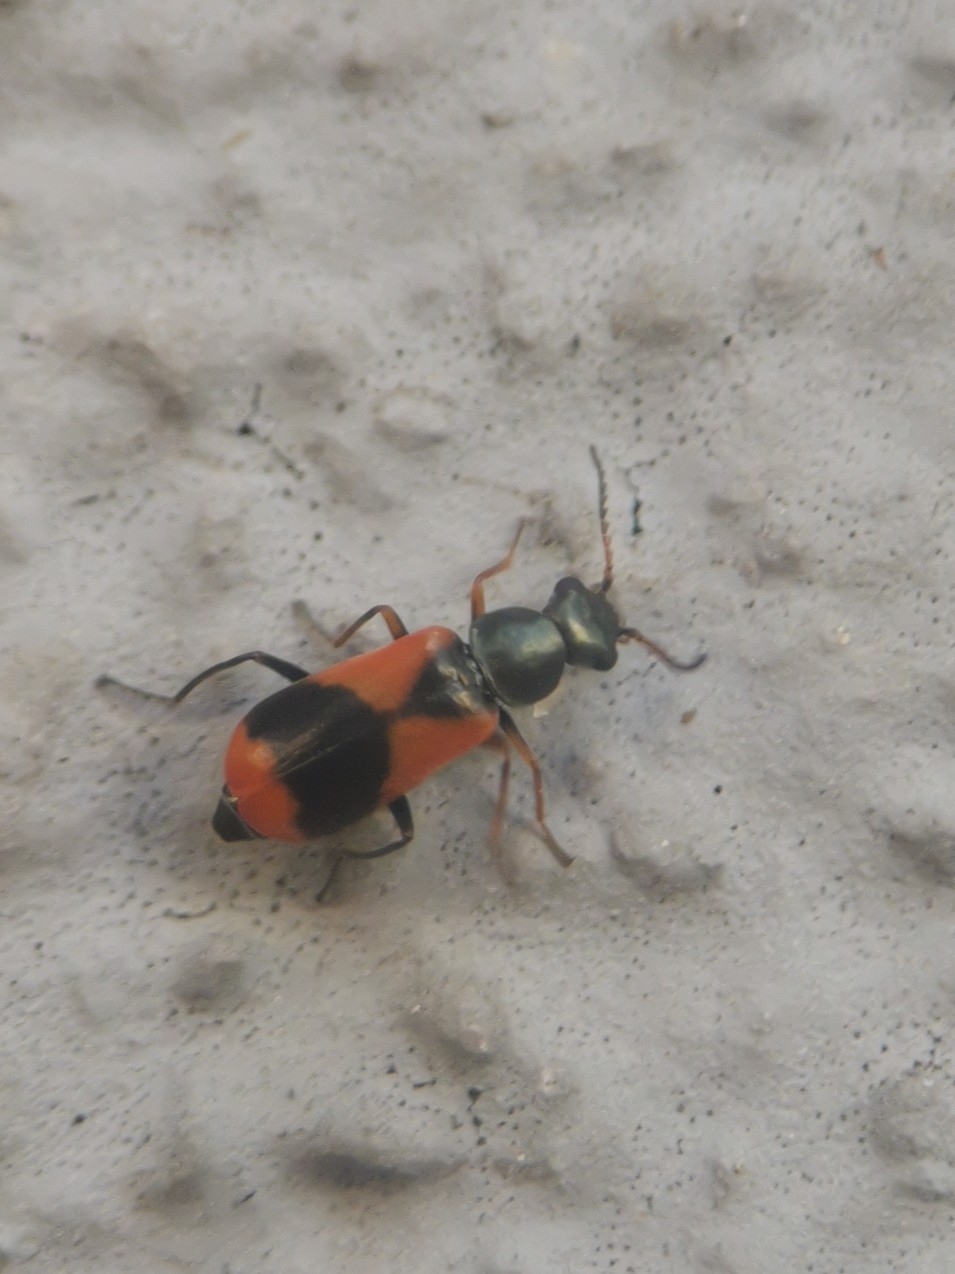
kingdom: Animalia
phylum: Arthropoda
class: Insecta
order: Coleoptera
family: Melyridae
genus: Anthocomus
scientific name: Anthocomus equestris
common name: Black-banded soft-winged flower beetle
